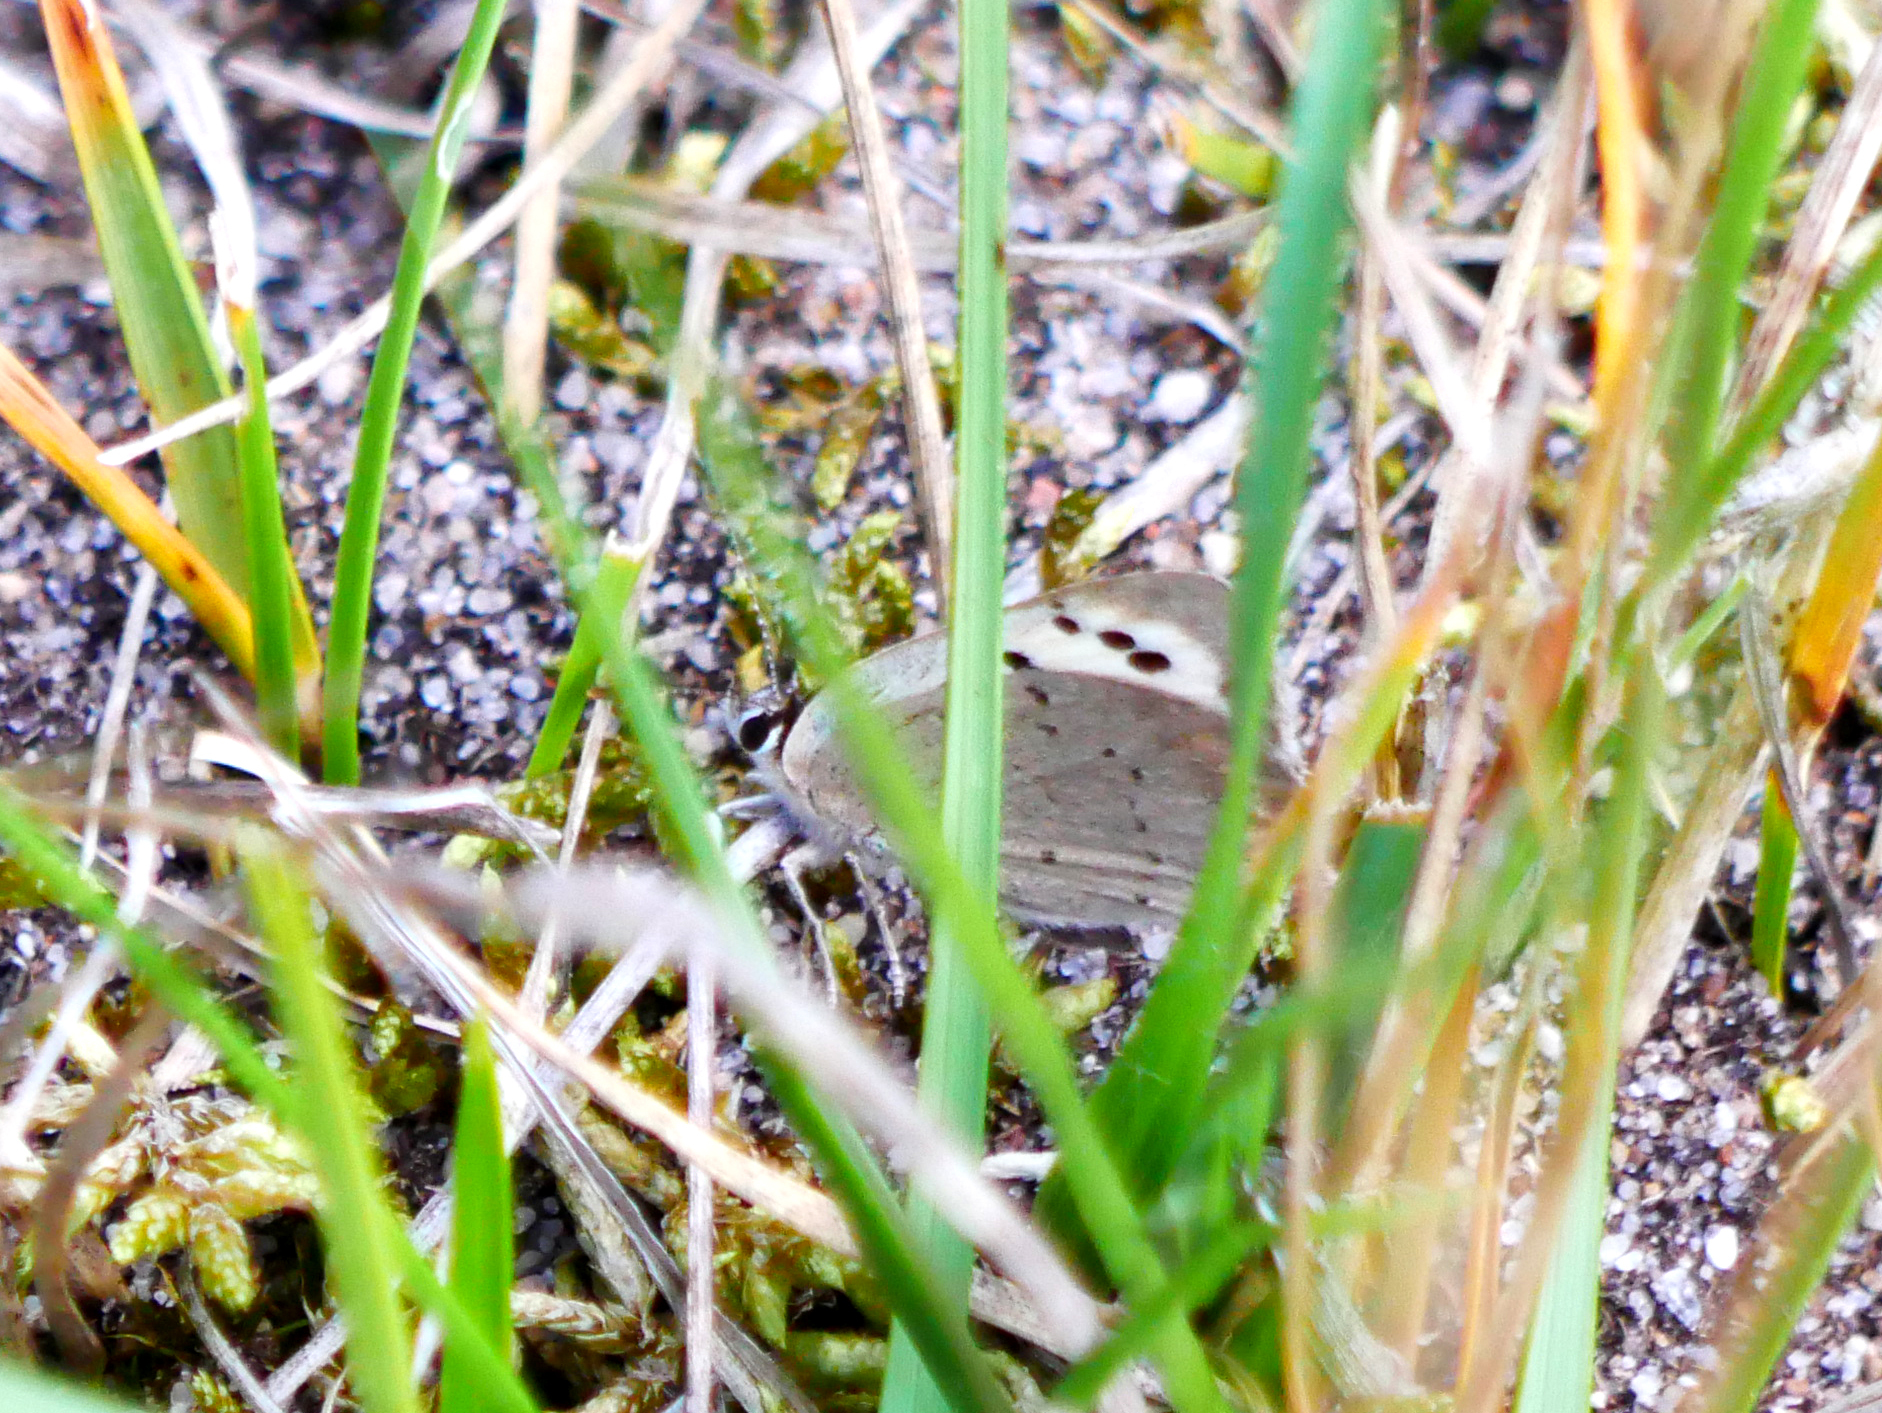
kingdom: Animalia
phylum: Arthropoda
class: Insecta
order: Lepidoptera
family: Lycaenidae
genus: Lycaena
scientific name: Lycaena phlaeas
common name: Small copper
